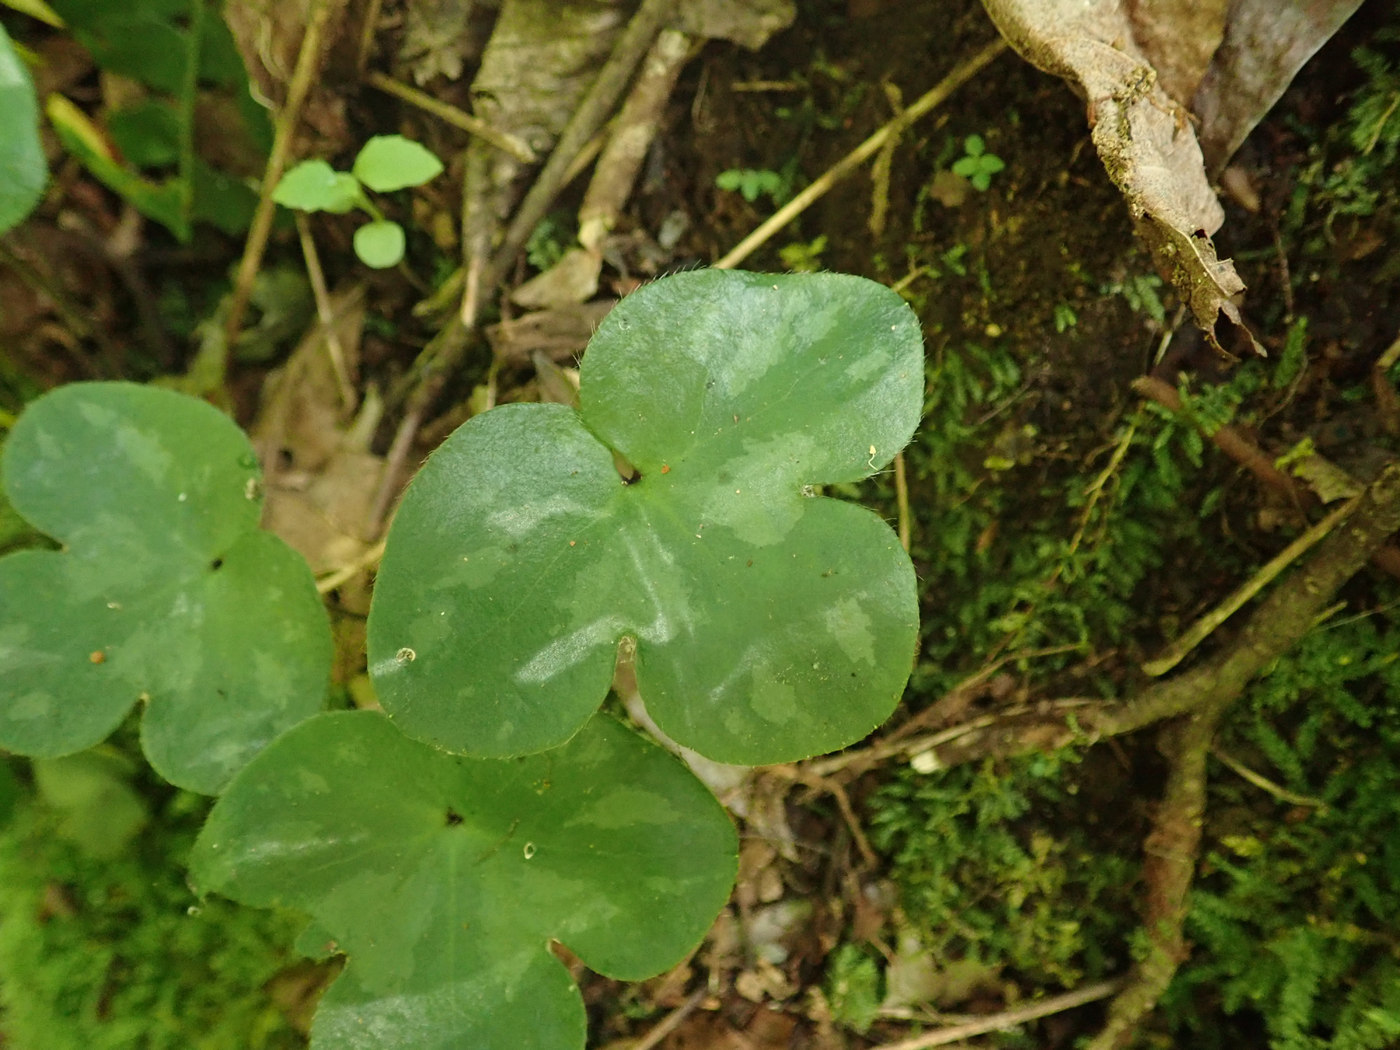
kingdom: Plantae
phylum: Tracheophyta
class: Magnoliopsida
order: Ranunculales
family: Ranunculaceae
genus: Hepatica
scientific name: Hepatica americana
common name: American hepatica
